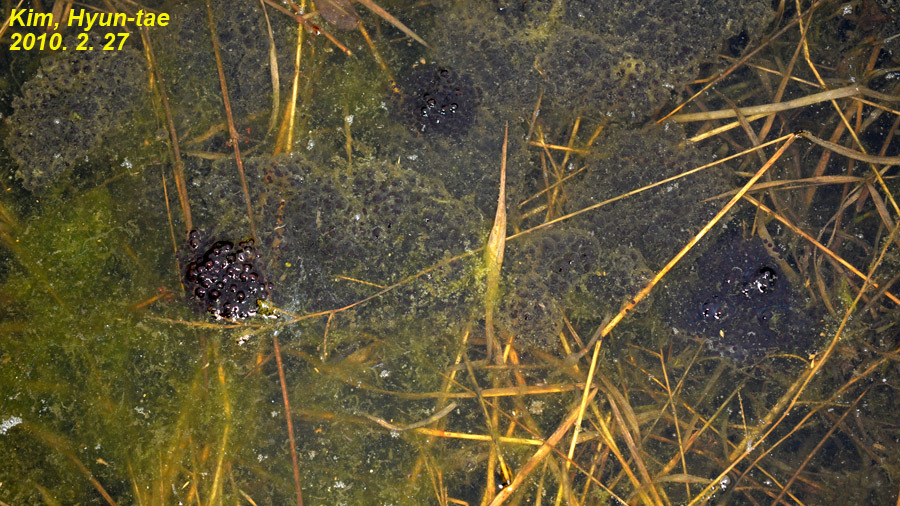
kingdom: Animalia
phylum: Chordata
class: Amphibia
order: Anura
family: Ranidae
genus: Rana
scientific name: Rana coreana
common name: Korean brown frog
